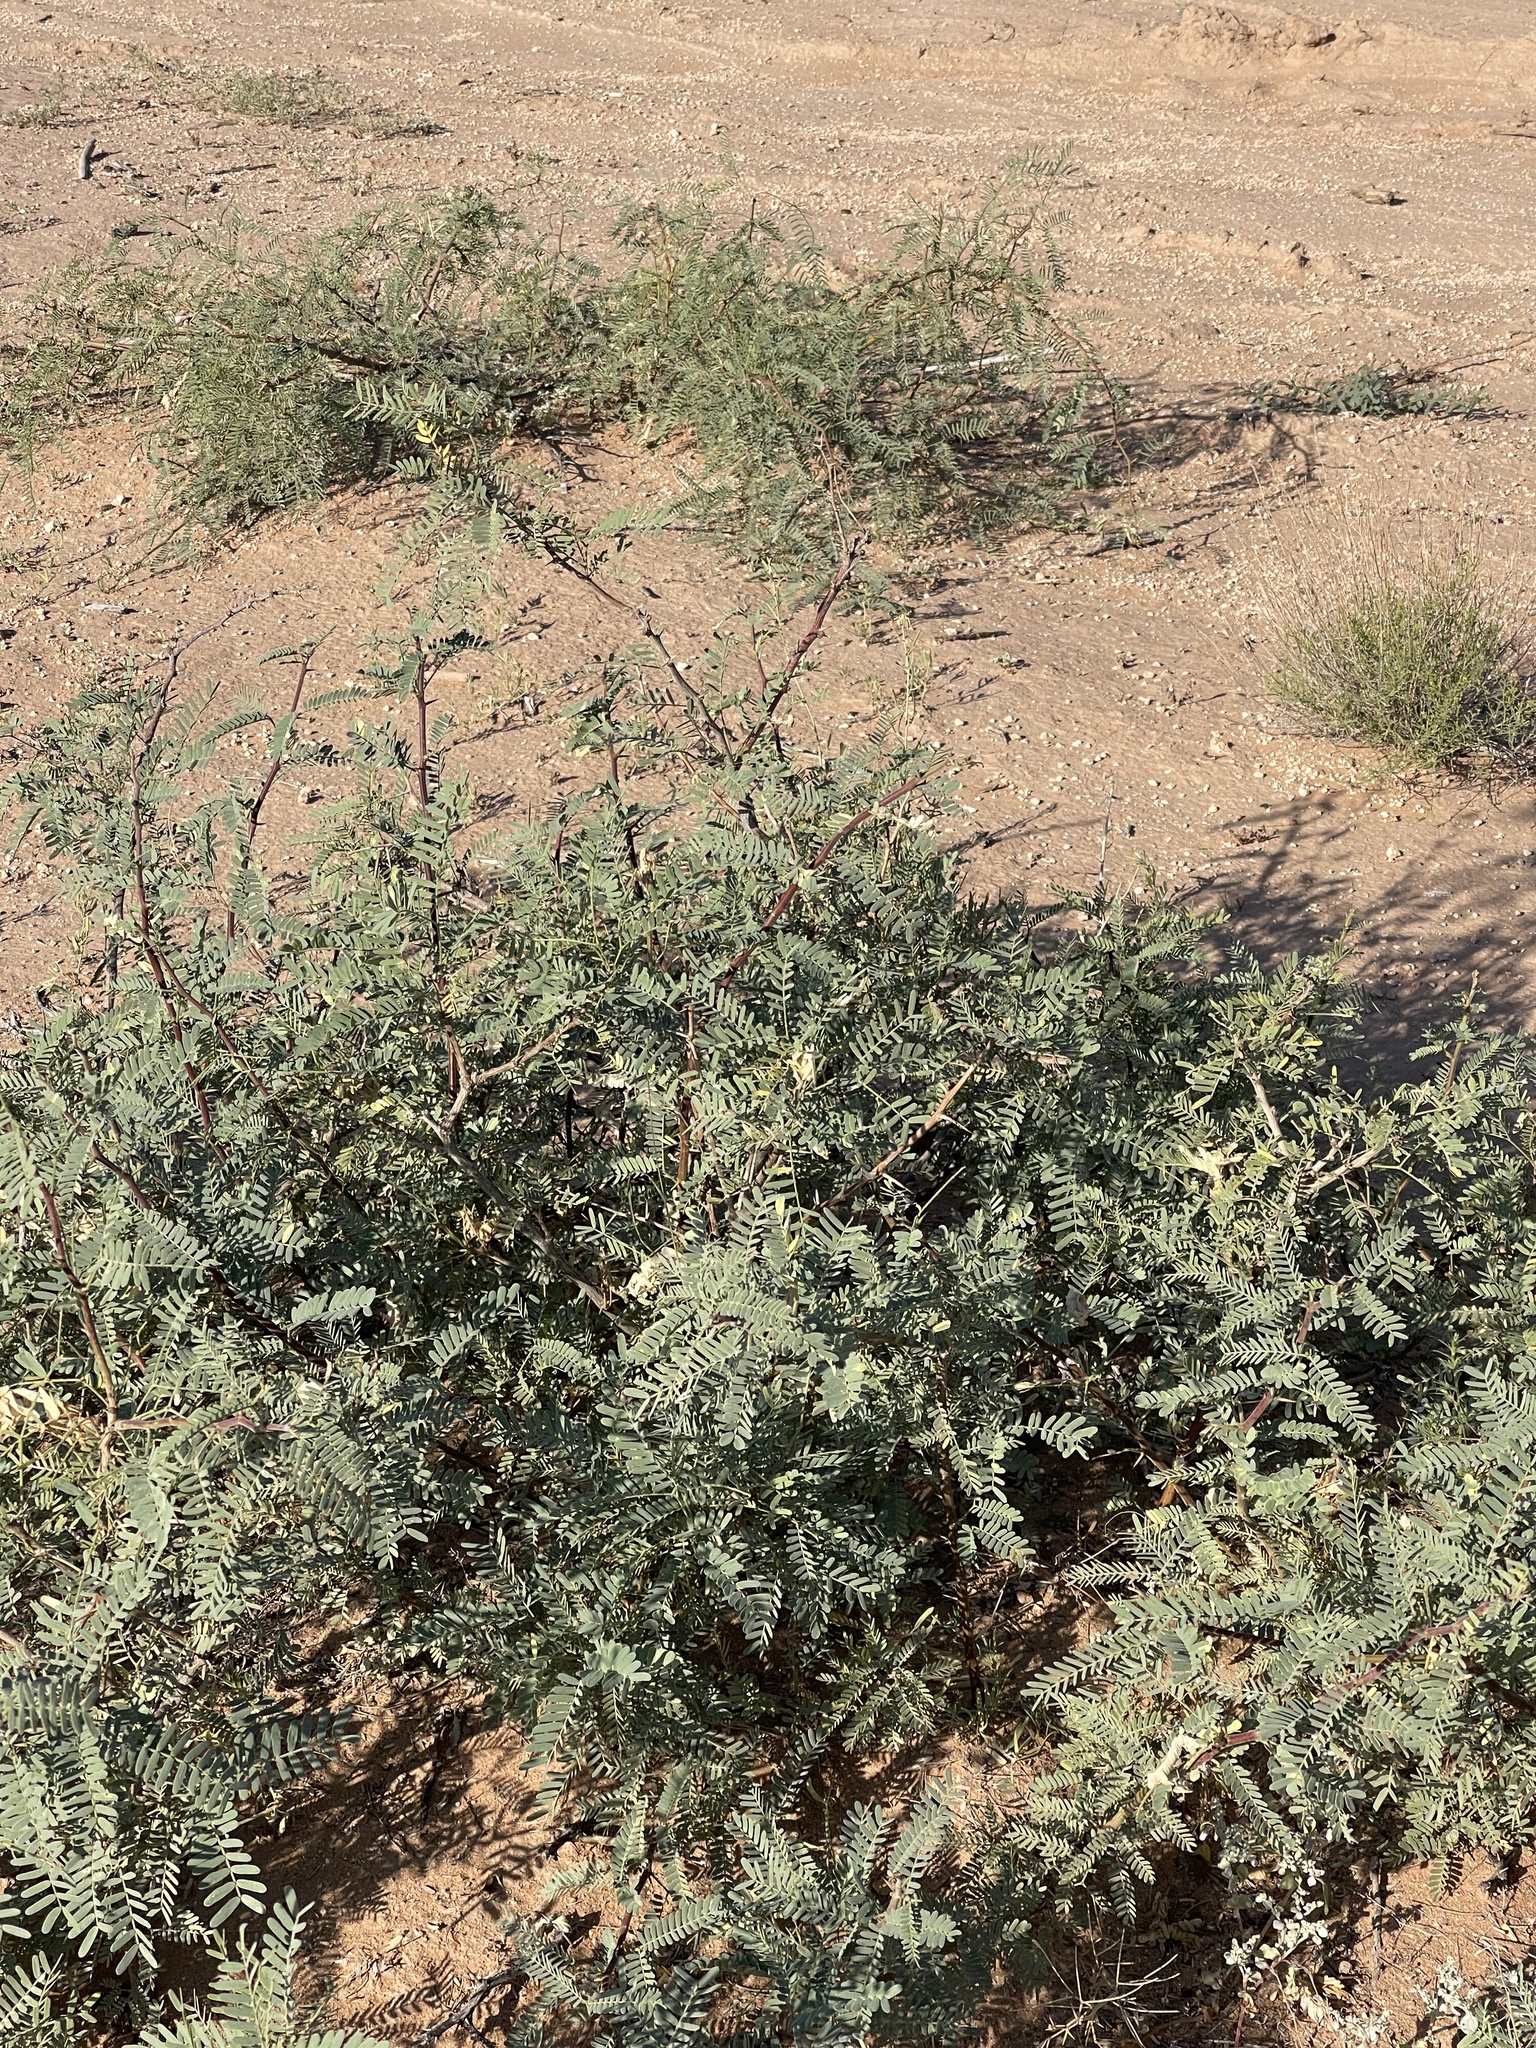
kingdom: Plantae
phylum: Tracheophyta
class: Magnoliopsida
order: Fabales
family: Fabaceae
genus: Prosopis
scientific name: Prosopis glandulosa
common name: Honey mesquite
